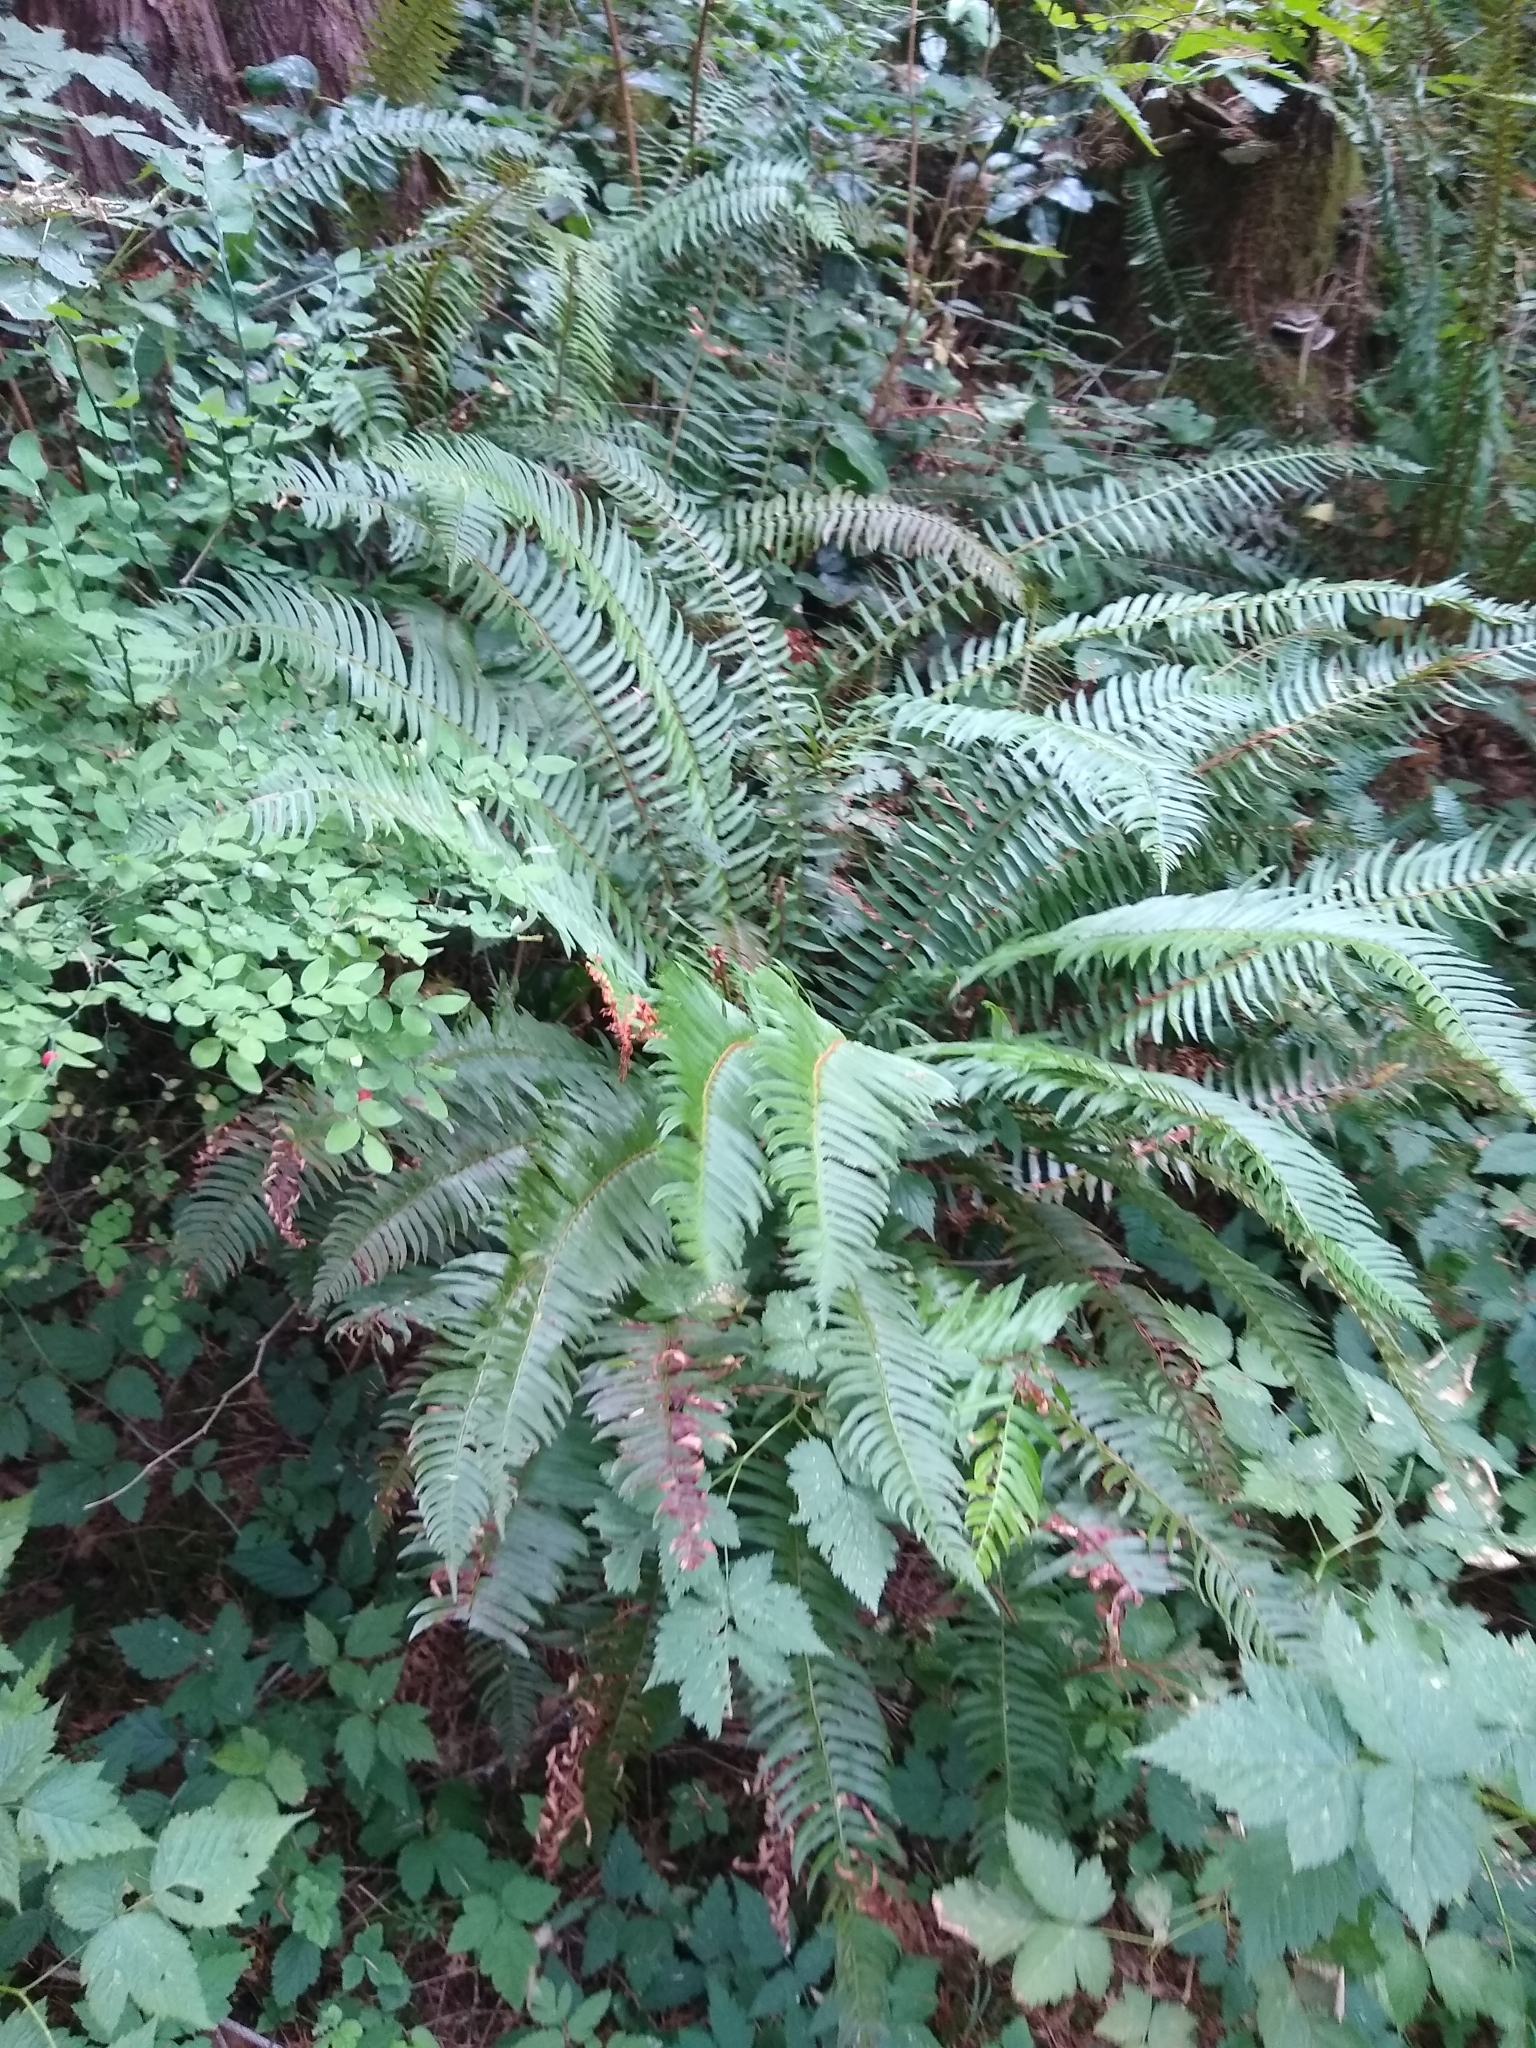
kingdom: Plantae
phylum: Tracheophyta
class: Polypodiopsida
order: Polypodiales
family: Dryopteridaceae
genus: Polystichum
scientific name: Polystichum munitum
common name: Western sword-fern
